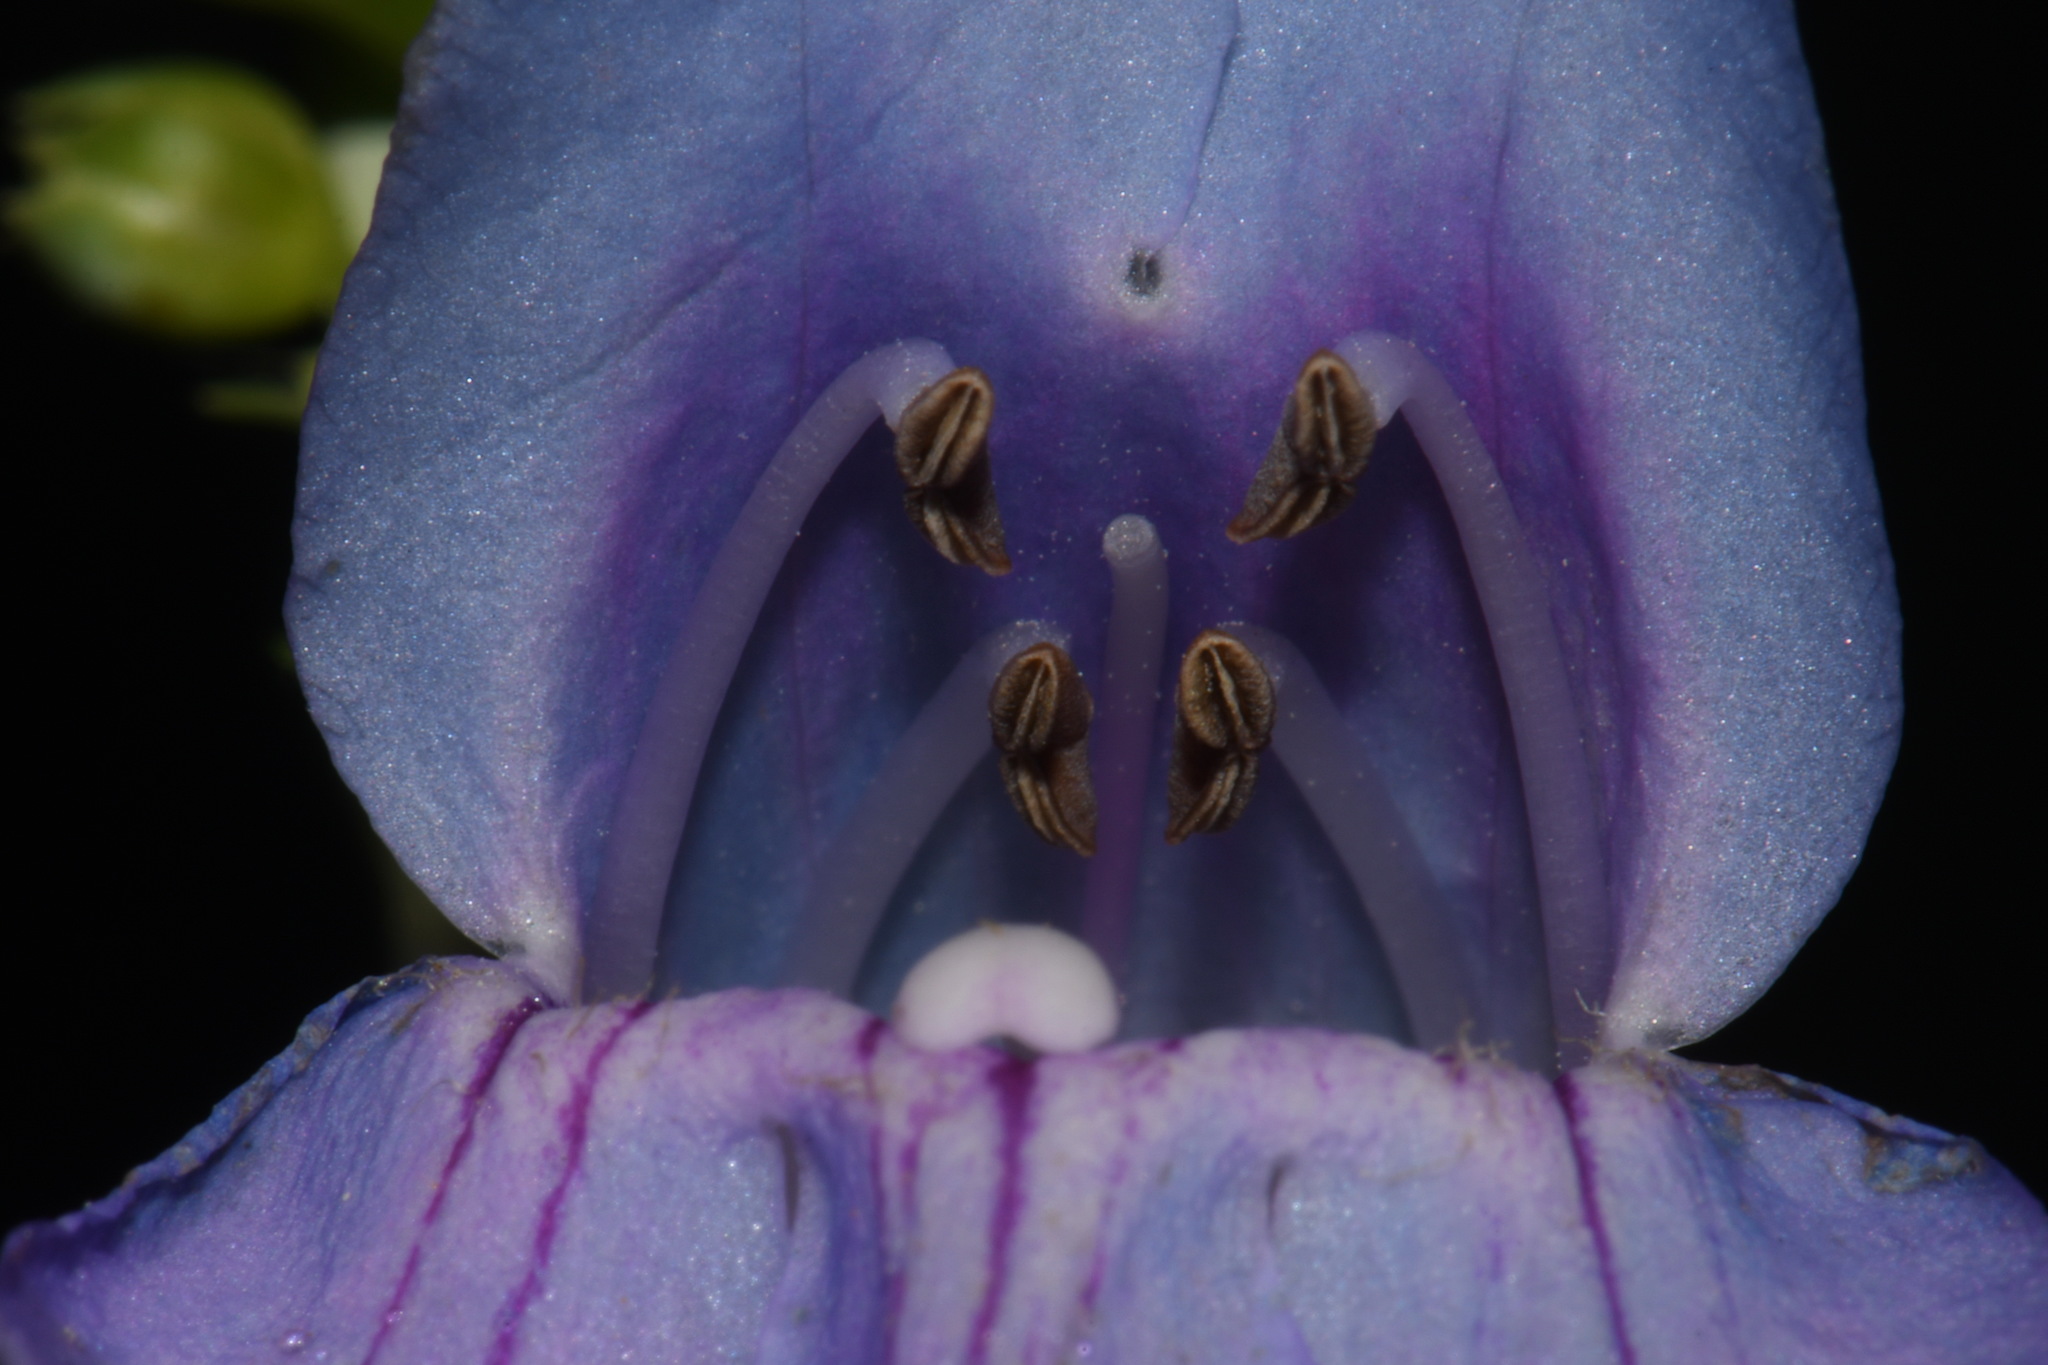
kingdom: Plantae
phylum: Tracheophyta
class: Magnoliopsida
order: Lamiales
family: Plantaginaceae
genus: Penstemon
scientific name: Penstemon virgatus
